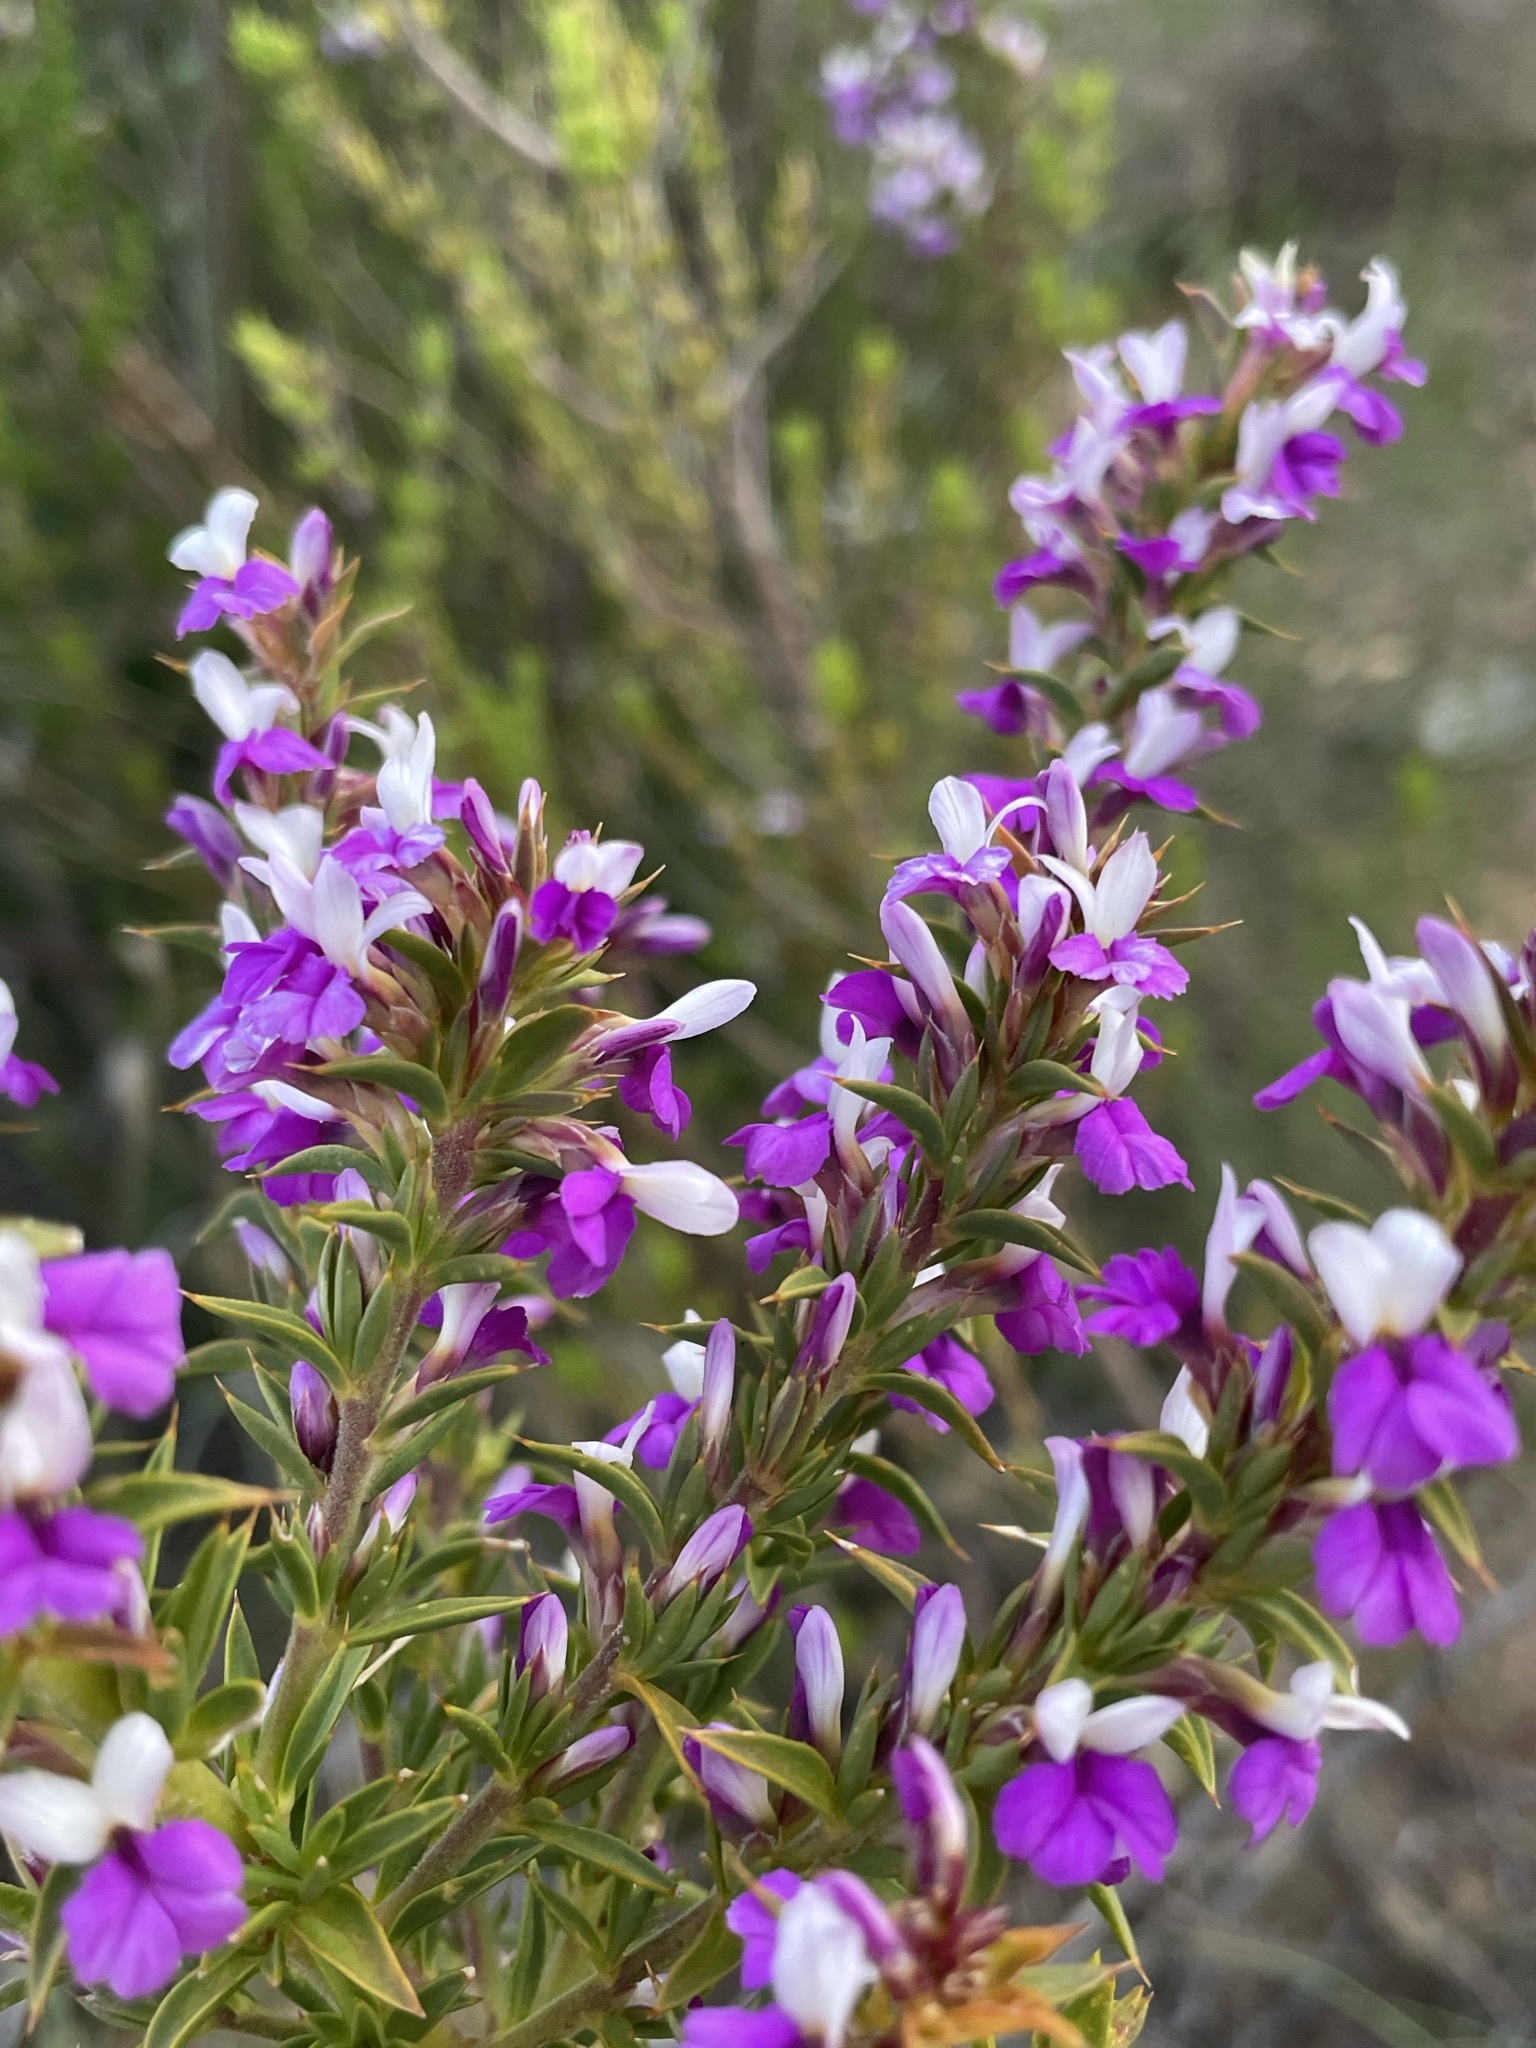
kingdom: Plantae
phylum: Tracheophyta
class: Magnoliopsida
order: Fabales
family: Polygalaceae
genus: Muraltia
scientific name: Muraltia heisteria
